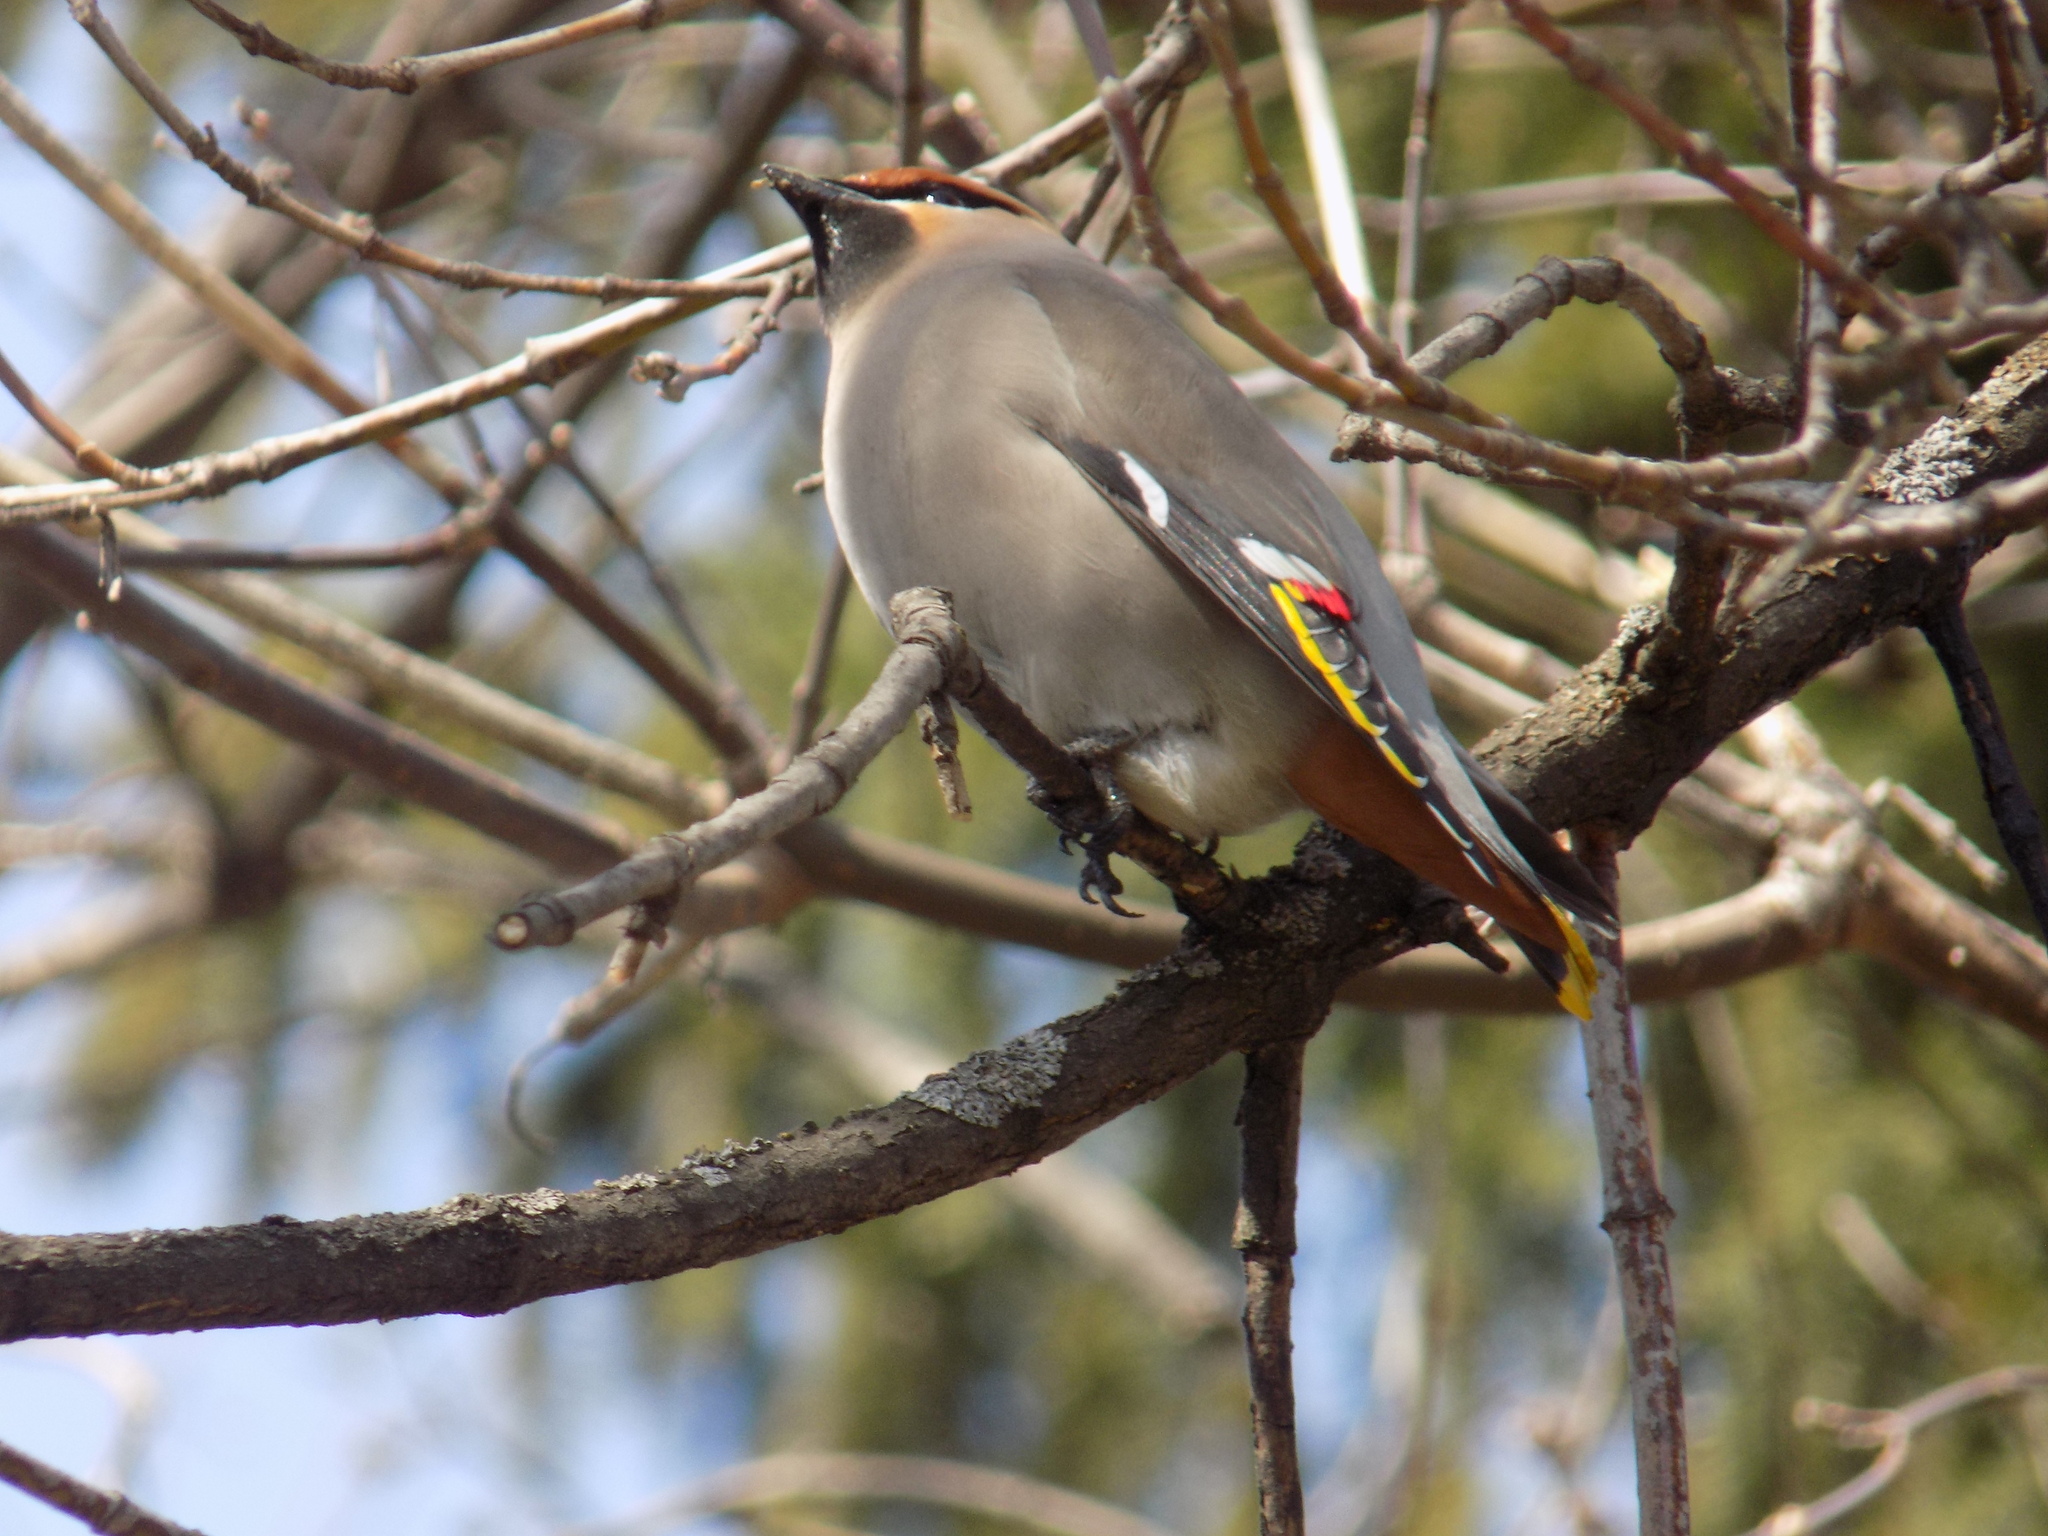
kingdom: Animalia
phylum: Chordata
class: Aves
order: Passeriformes
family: Bombycillidae
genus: Bombycilla
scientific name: Bombycilla garrulus
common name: Bohemian waxwing
